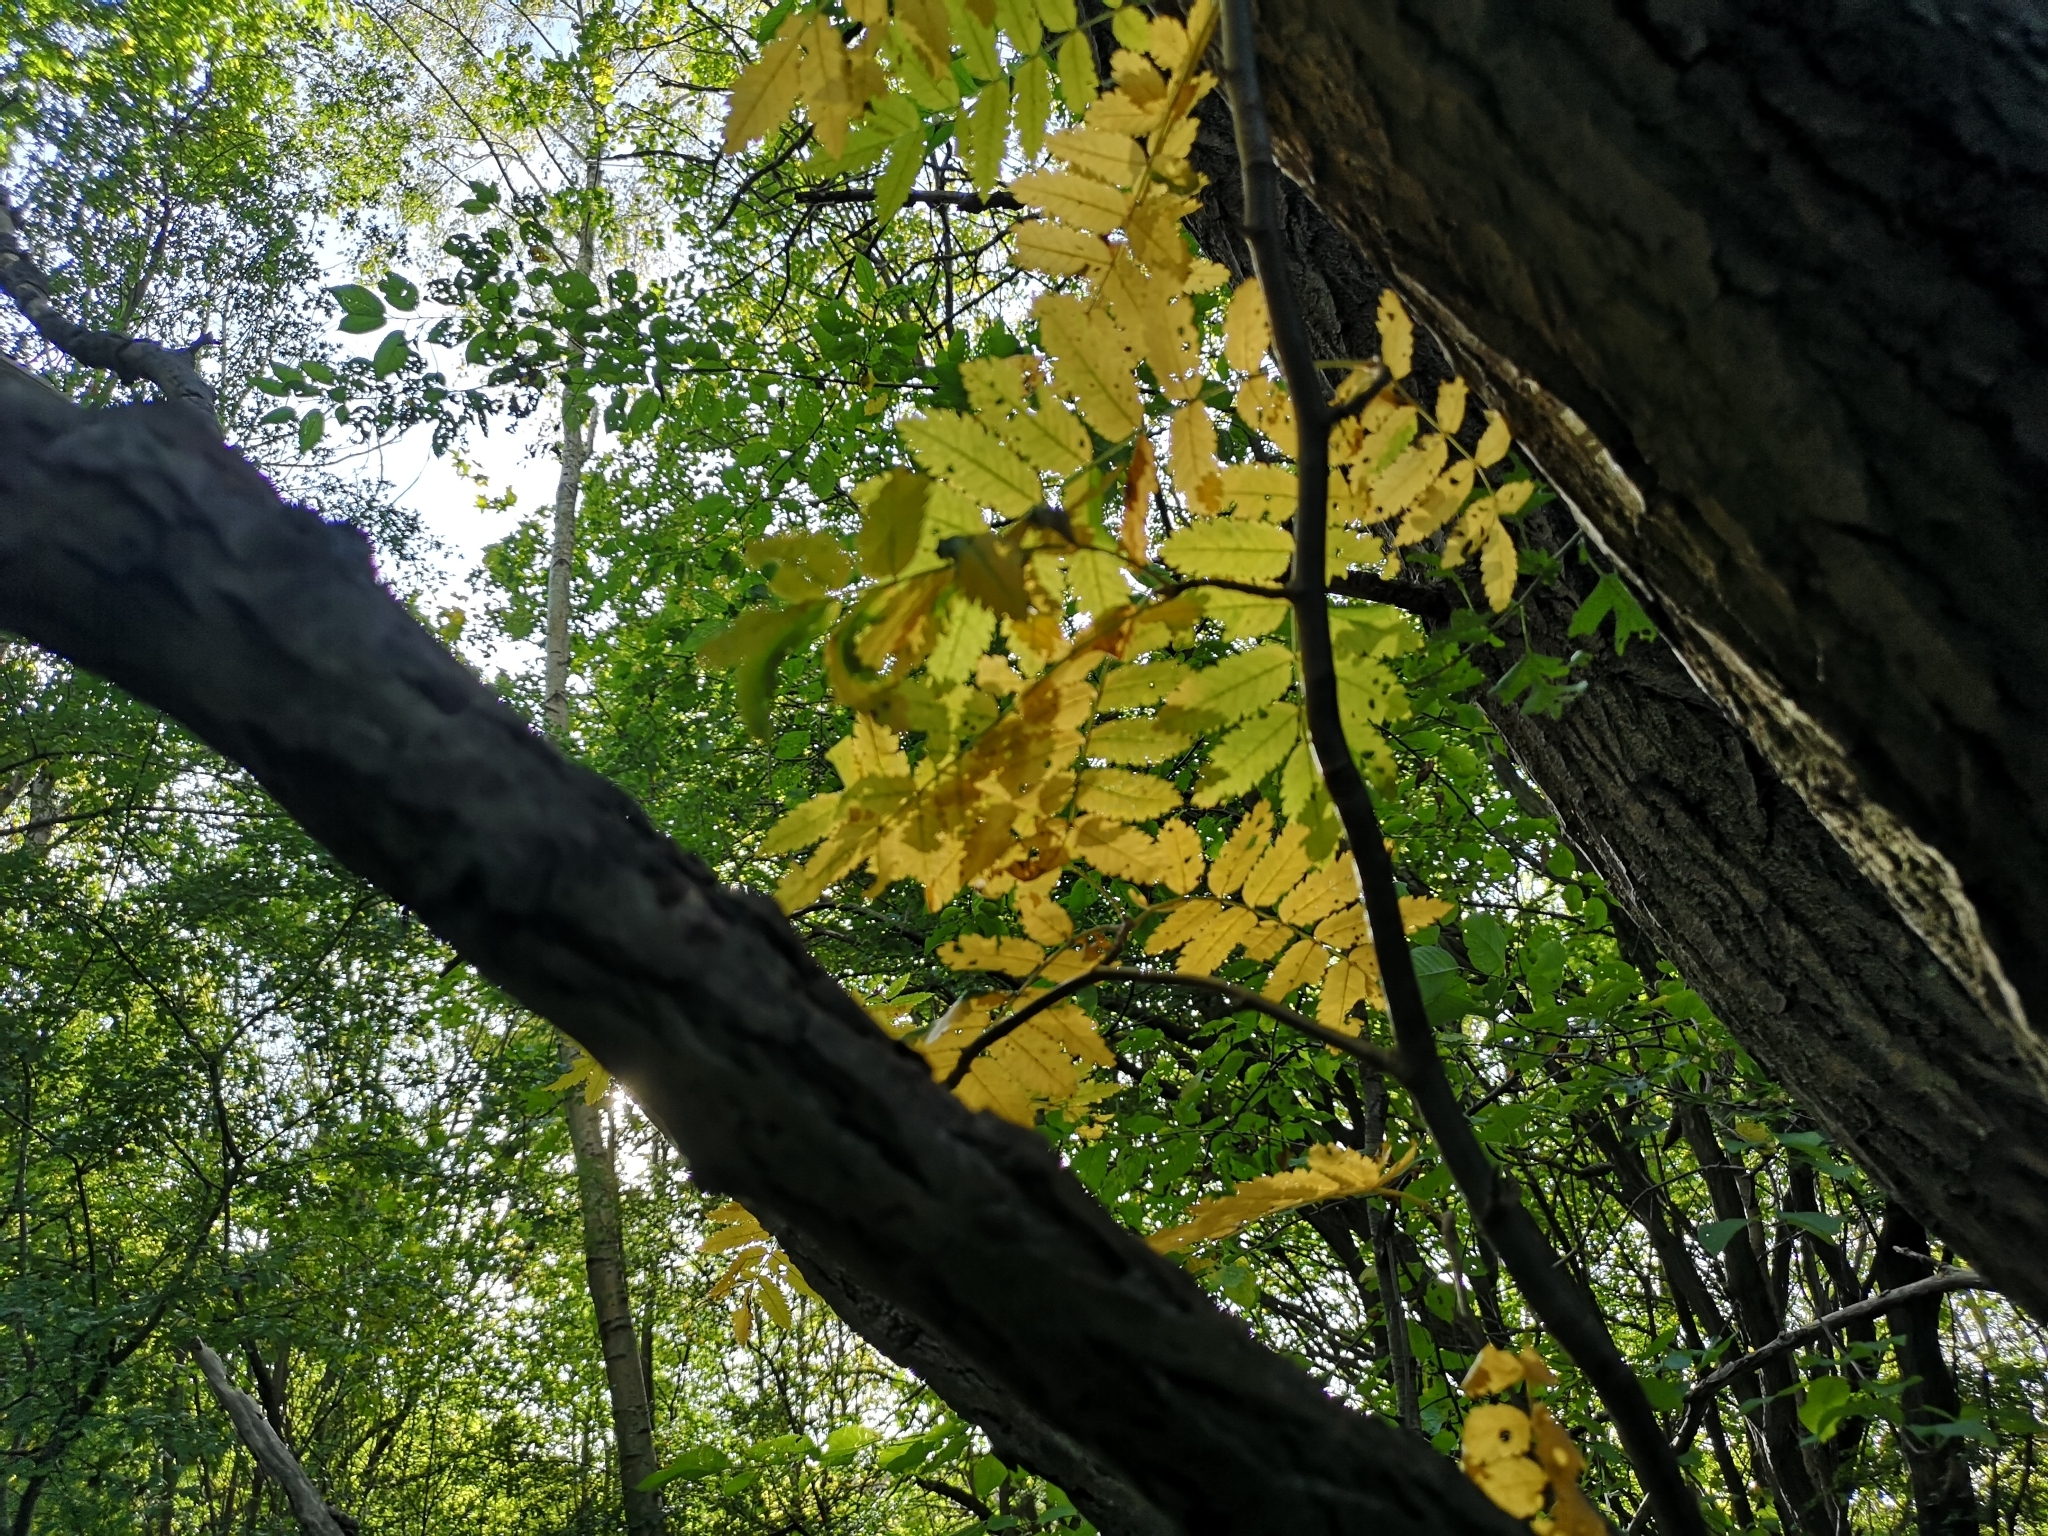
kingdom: Plantae
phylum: Tracheophyta
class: Magnoliopsida
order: Rosales
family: Rosaceae
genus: Sorbus
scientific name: Sorbus aucuparia
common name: Rowan
